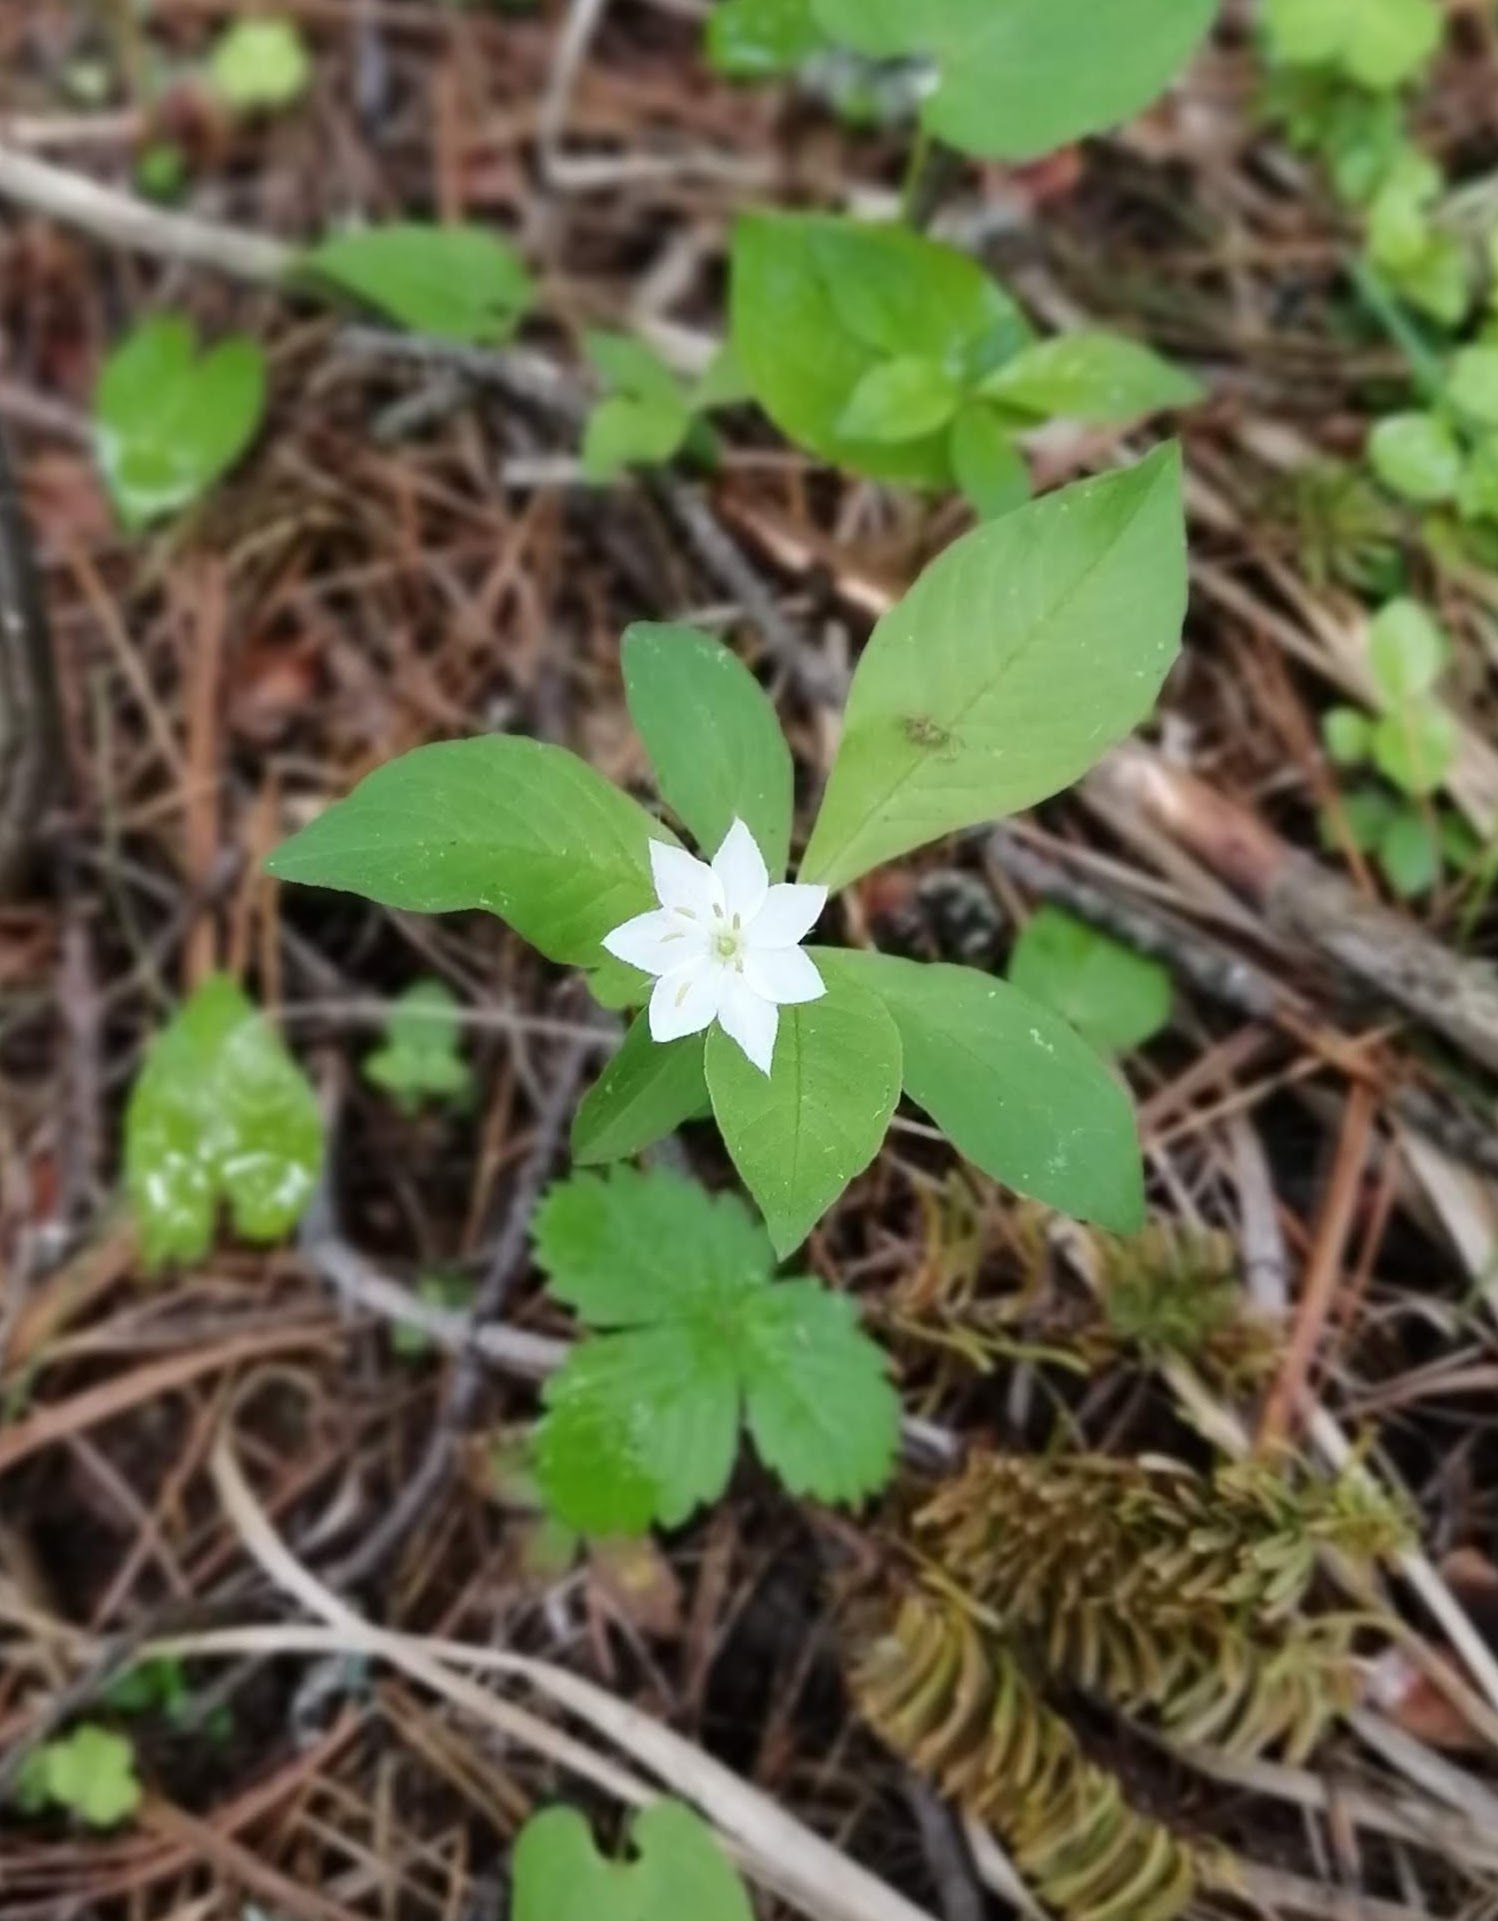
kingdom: Plantae
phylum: Tracheophyta
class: Magnoliopsida
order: Ericales
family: Primulaceae
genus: Lysimachia
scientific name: Lysimachia europaea
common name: Arctic starflower
